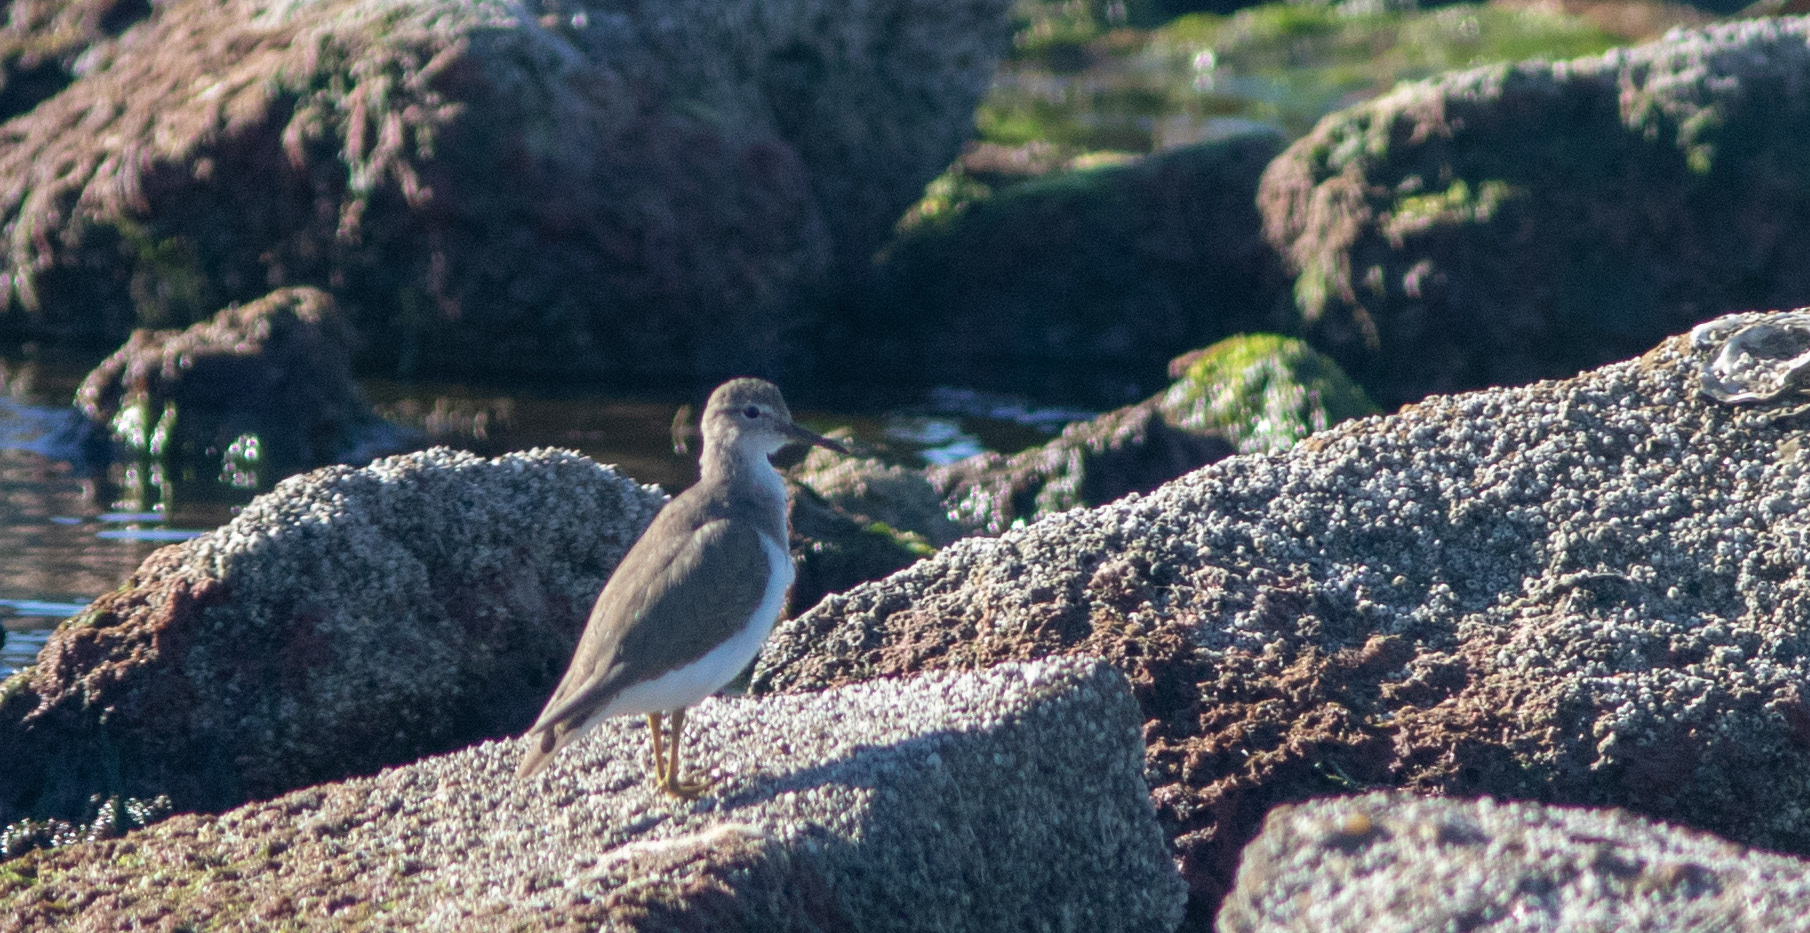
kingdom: Animalia
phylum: Chordata
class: Aves
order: Charadriiformes
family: Scolopacidae
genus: Actitis
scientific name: Actitis macularius
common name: Spotted sandpiper
